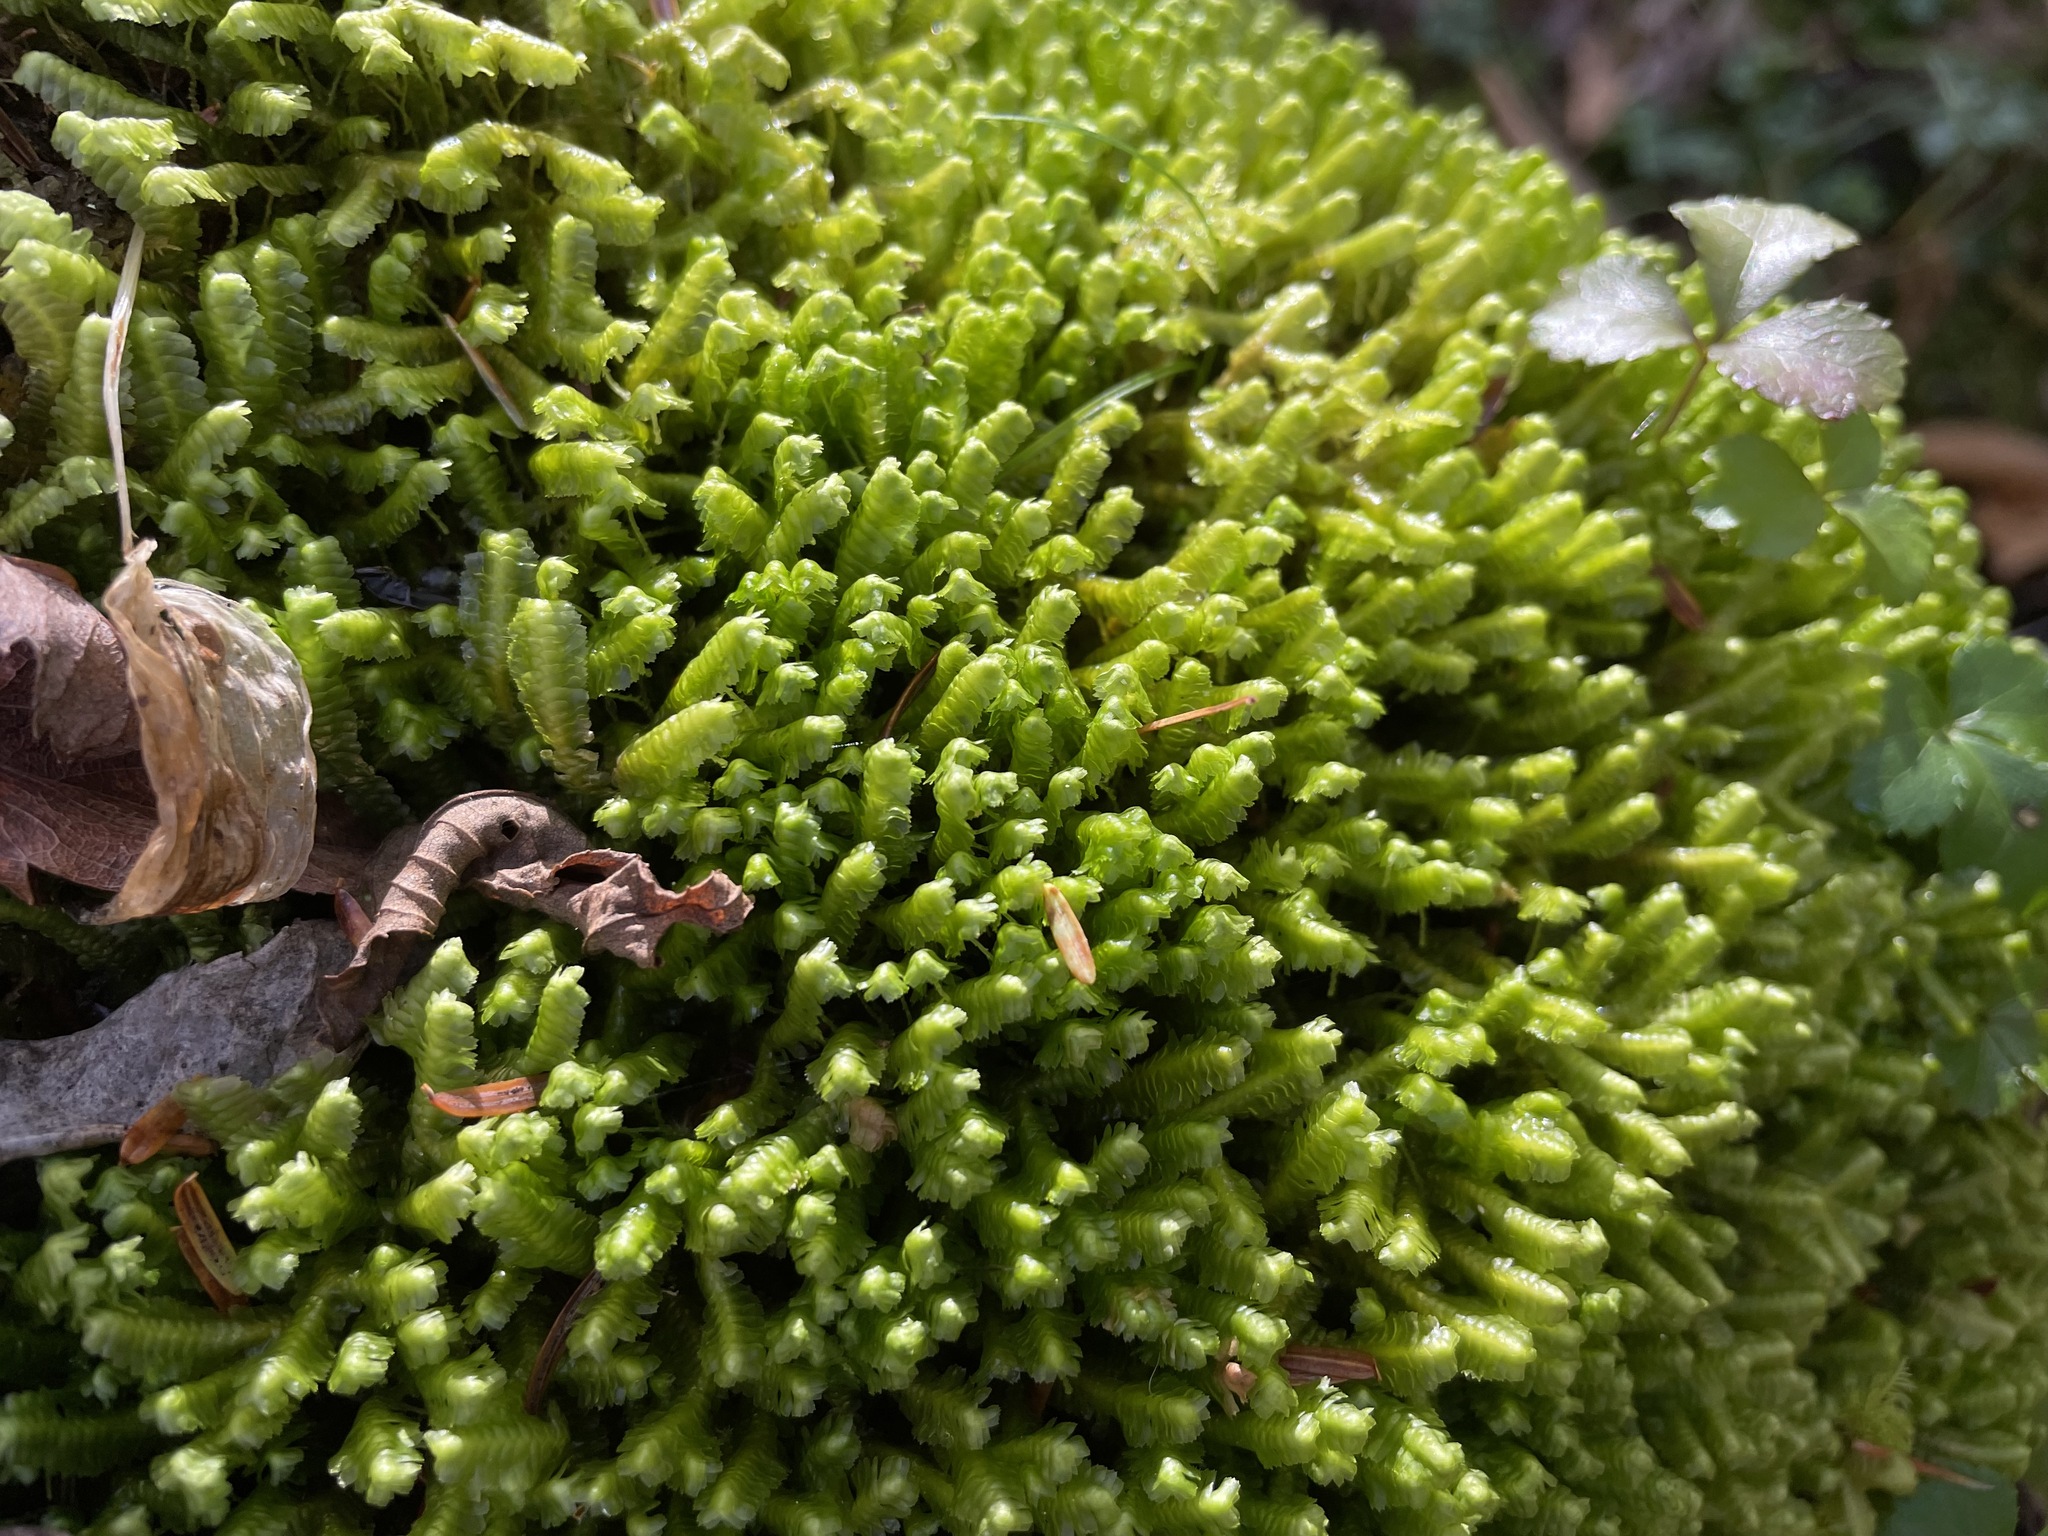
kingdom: Plantae
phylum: Marchantiophyta
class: Jungermanniopsida
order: Jungermanniales
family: Lepidoziaceae
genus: Bazzania
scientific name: Bazzania trilobata
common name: Three-lobed whipwort
